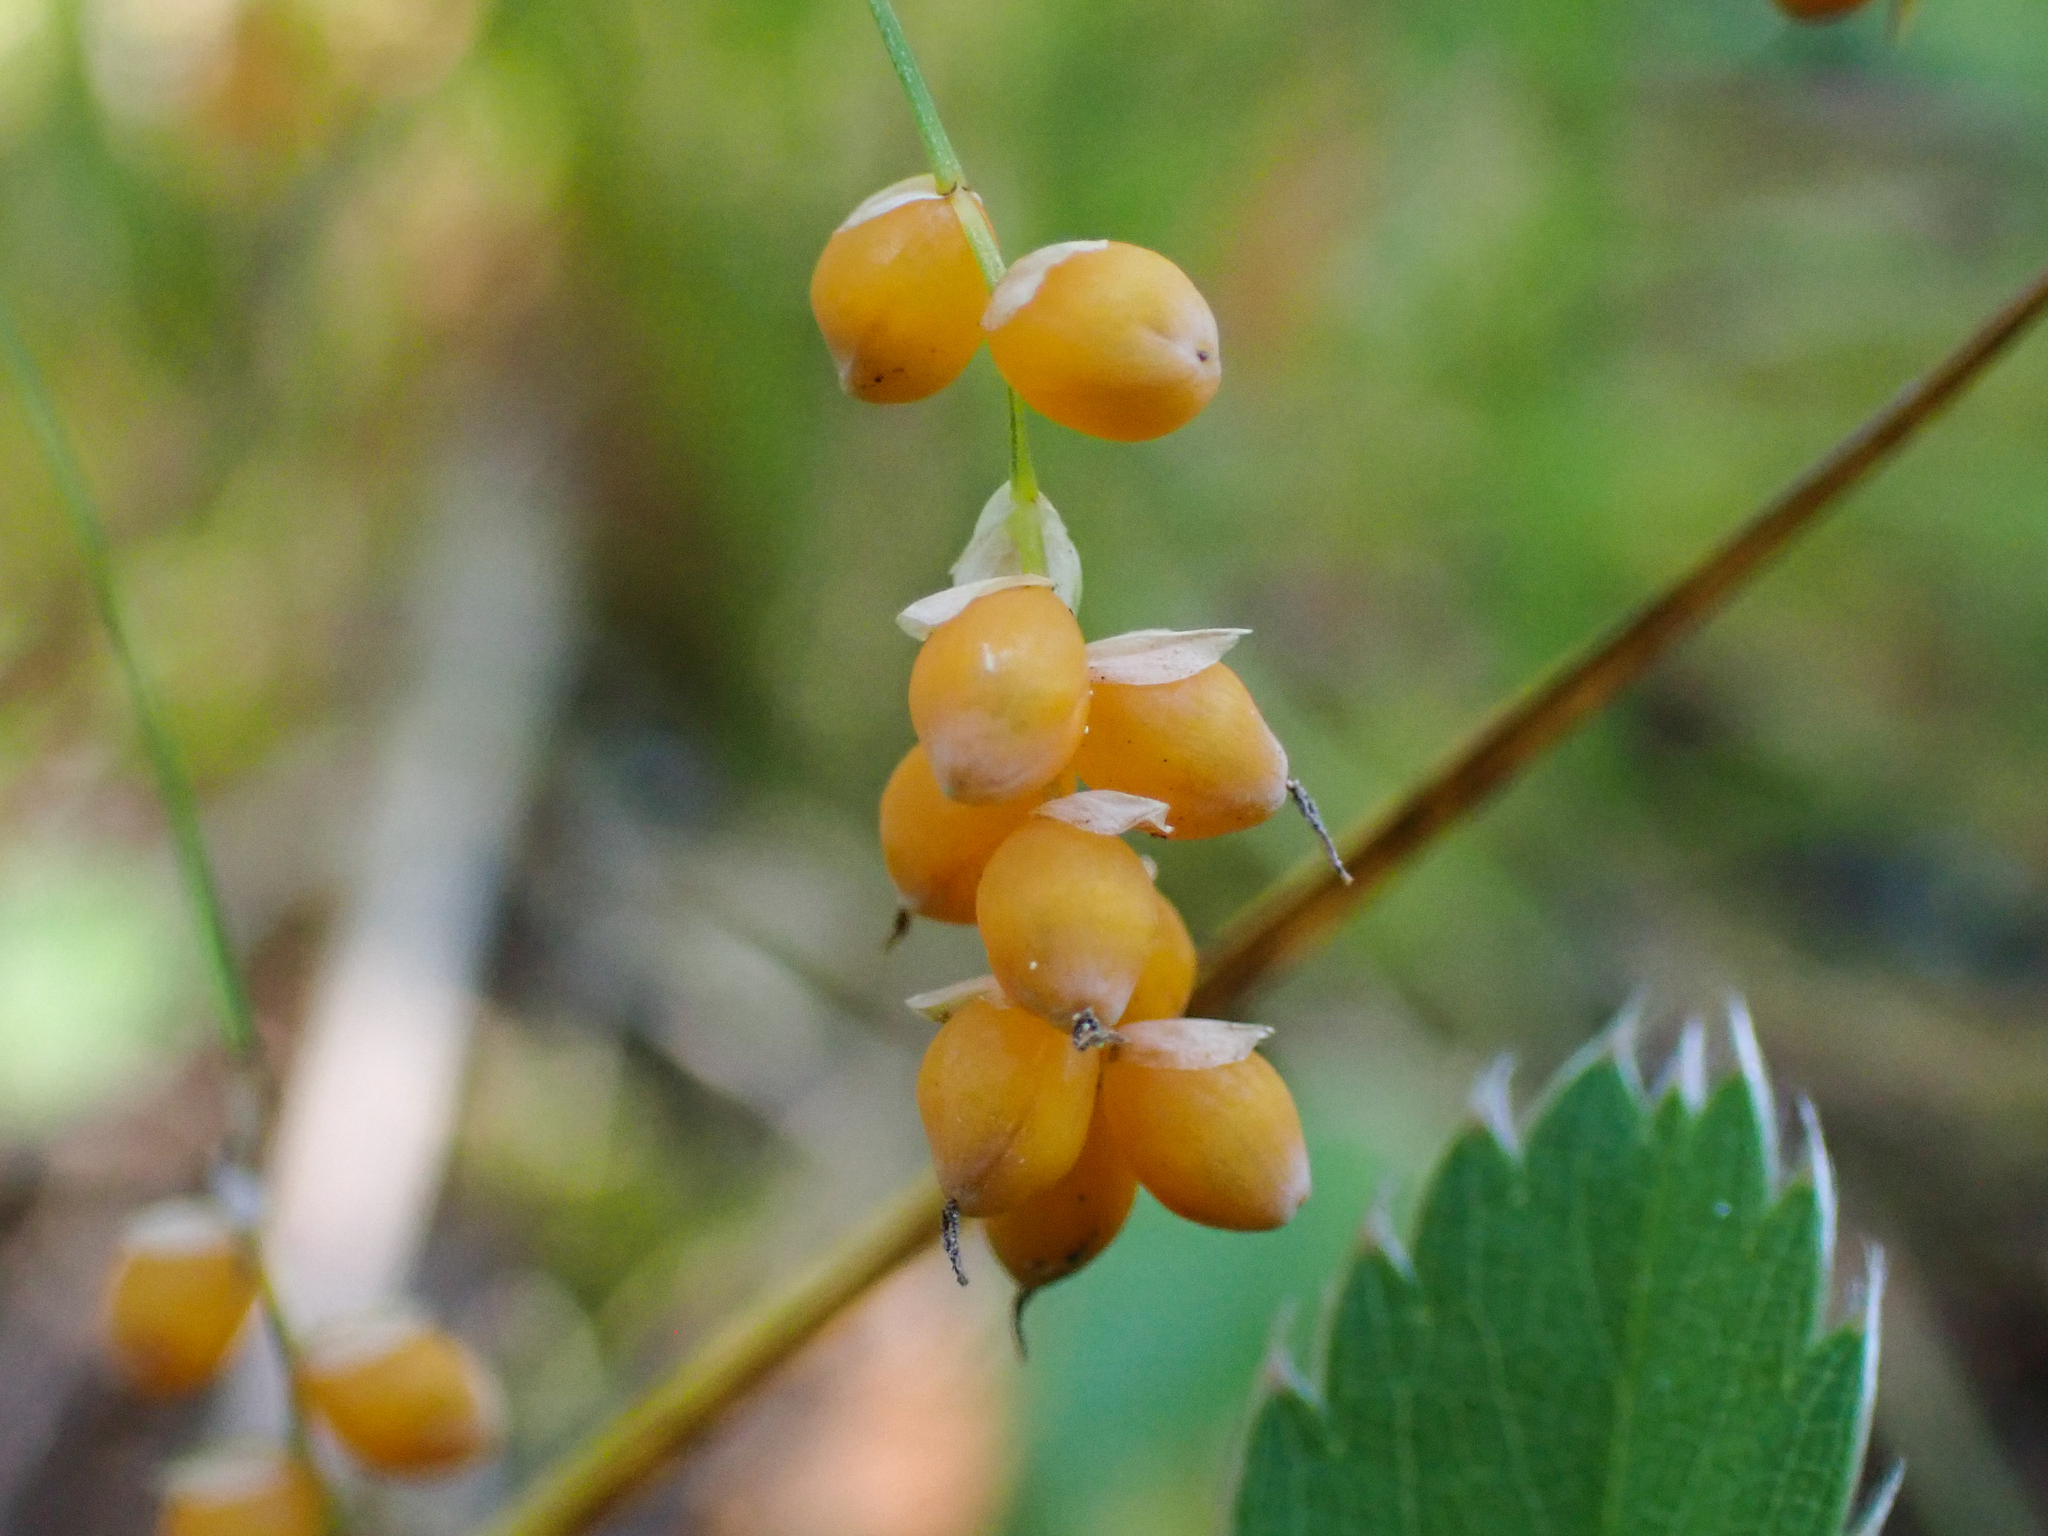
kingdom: Plantae
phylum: Tracheophyta
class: Liliopsida
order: Poales
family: Cyperaceae
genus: Carex
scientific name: Carex aurea
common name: Golden sedge
